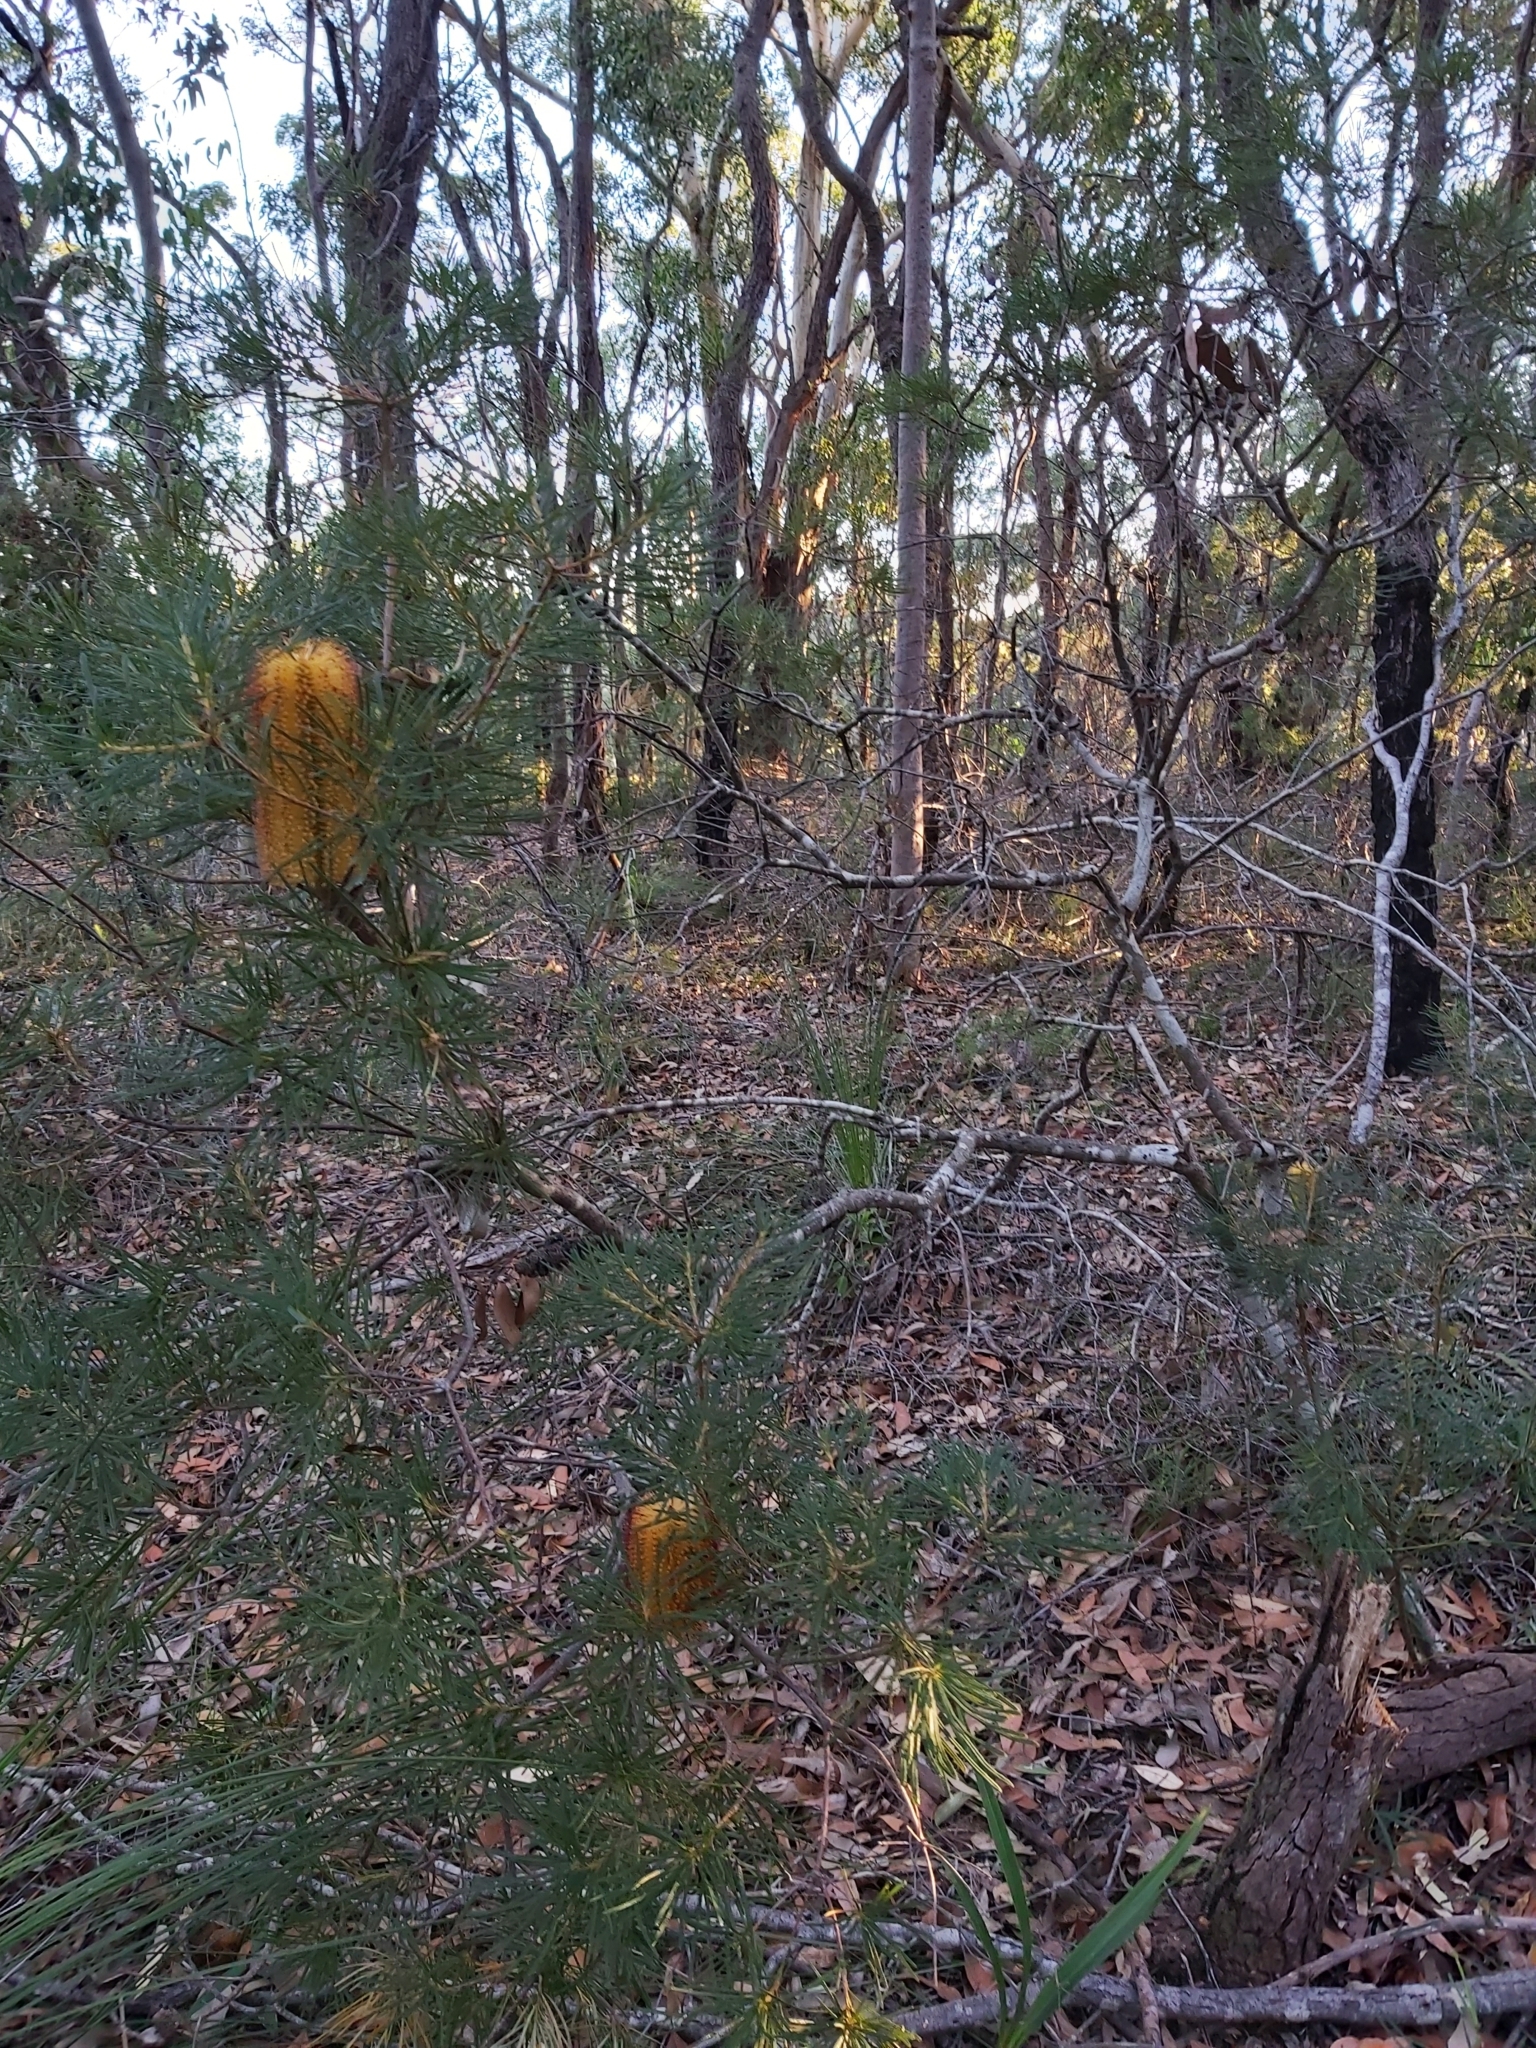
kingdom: Plantae
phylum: Tracheophyta
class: Magnoliopsida
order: Proteales
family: Proteaceae
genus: Banksia
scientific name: Banksia spinulosa
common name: Hairpin banksia
